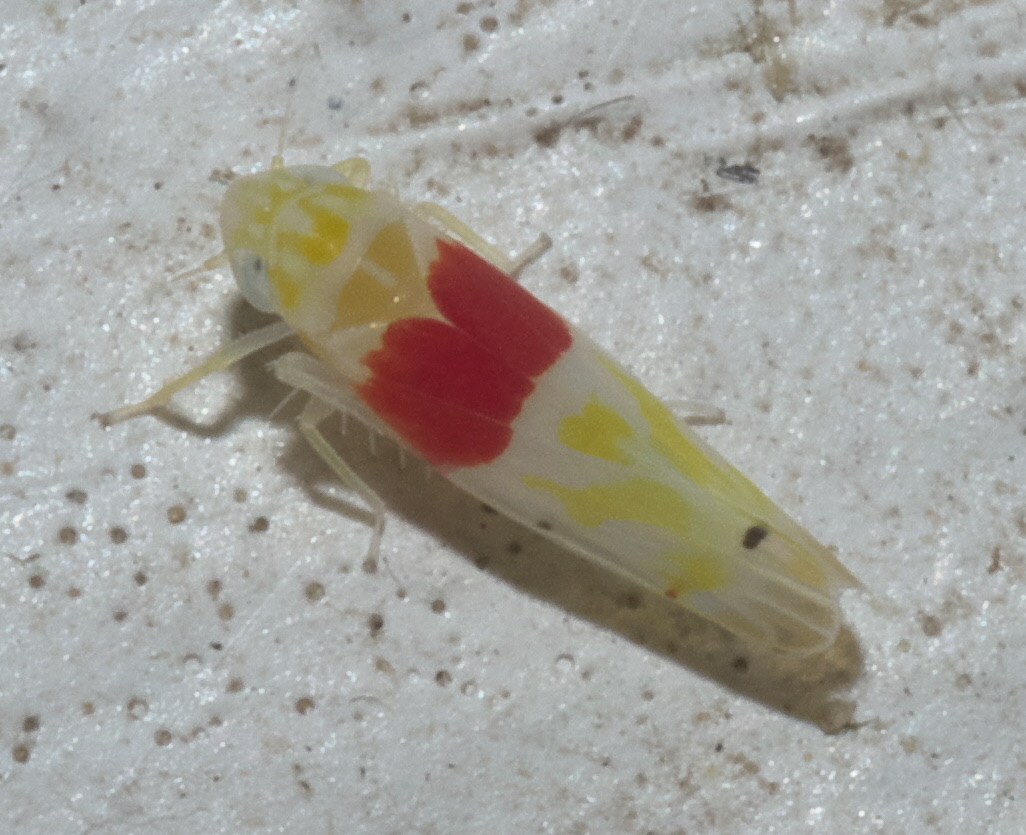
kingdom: Animalia
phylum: Arthropoda
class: Insecta
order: Hemiptera
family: Cicadellidae
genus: Eratoneura
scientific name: Eratoneura osborni
